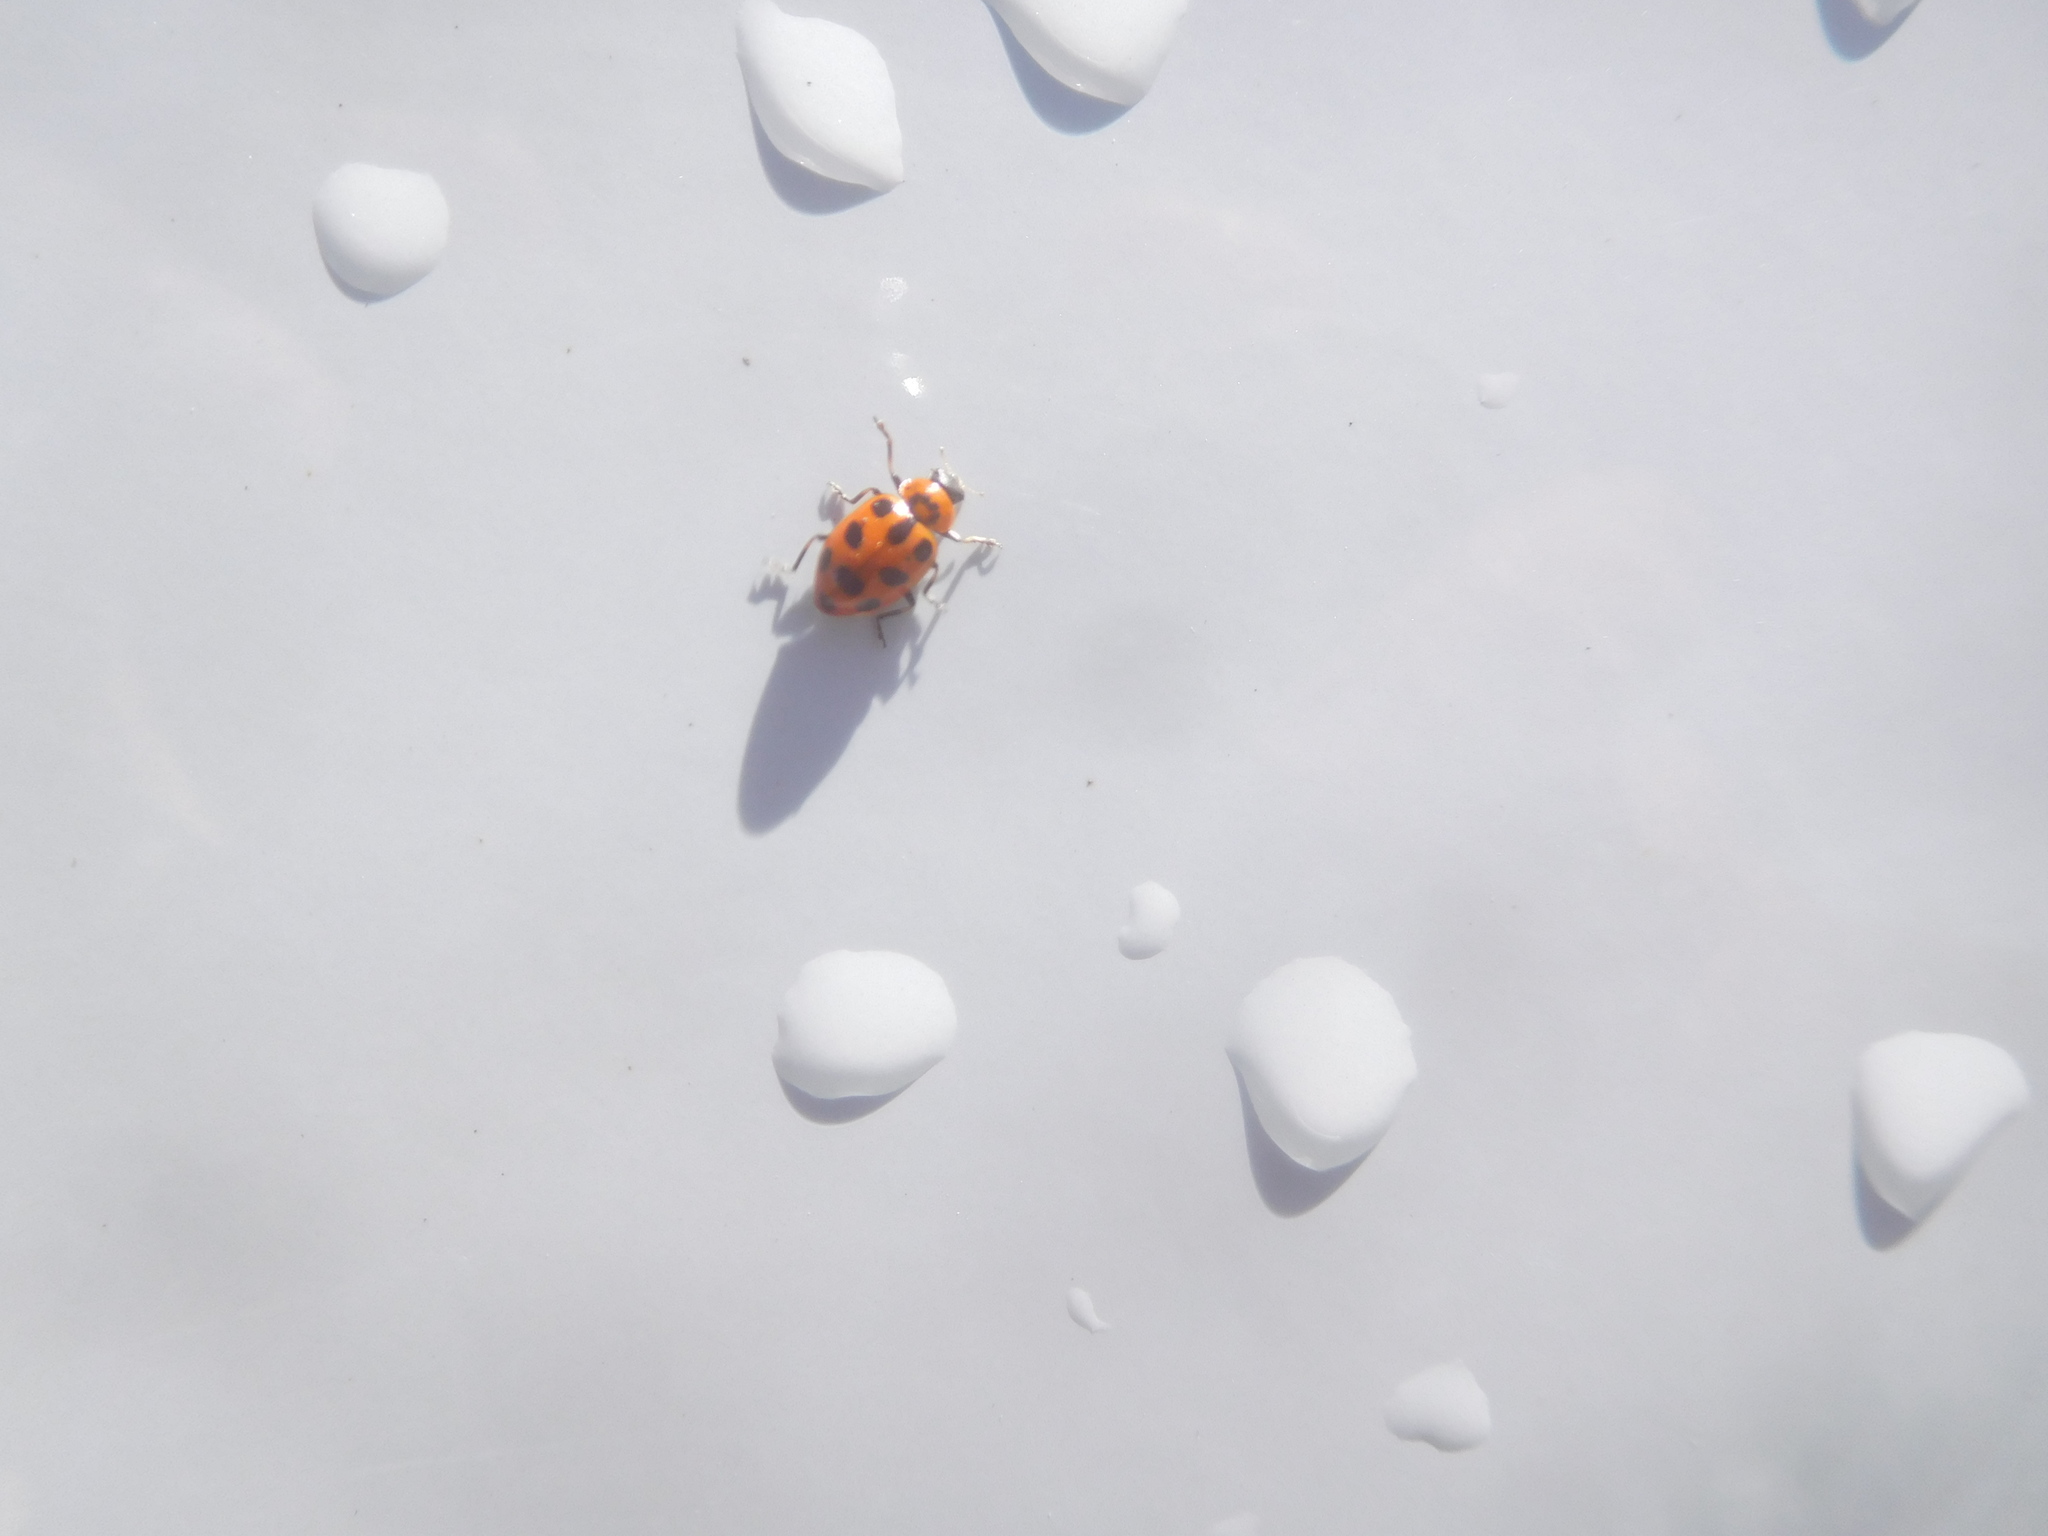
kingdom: Animalia
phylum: Arthropoda
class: Insecta
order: Coleoptera
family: Coccinellidae
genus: Naemia
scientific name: Naemia seriata
